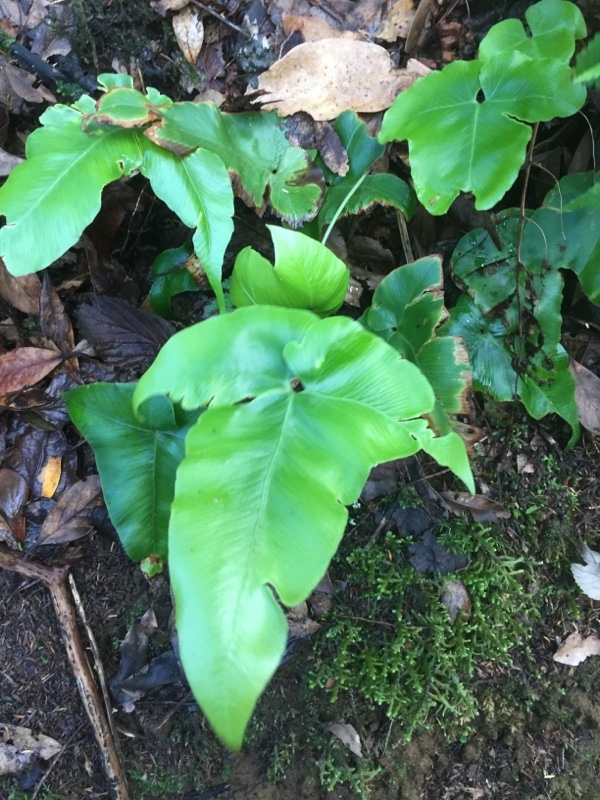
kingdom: Plantae
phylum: Tracheophyta
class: Polypodiopsida
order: Polypodiales
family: Aspleniaceae
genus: Asplenium
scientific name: Asplenium hemionitis
